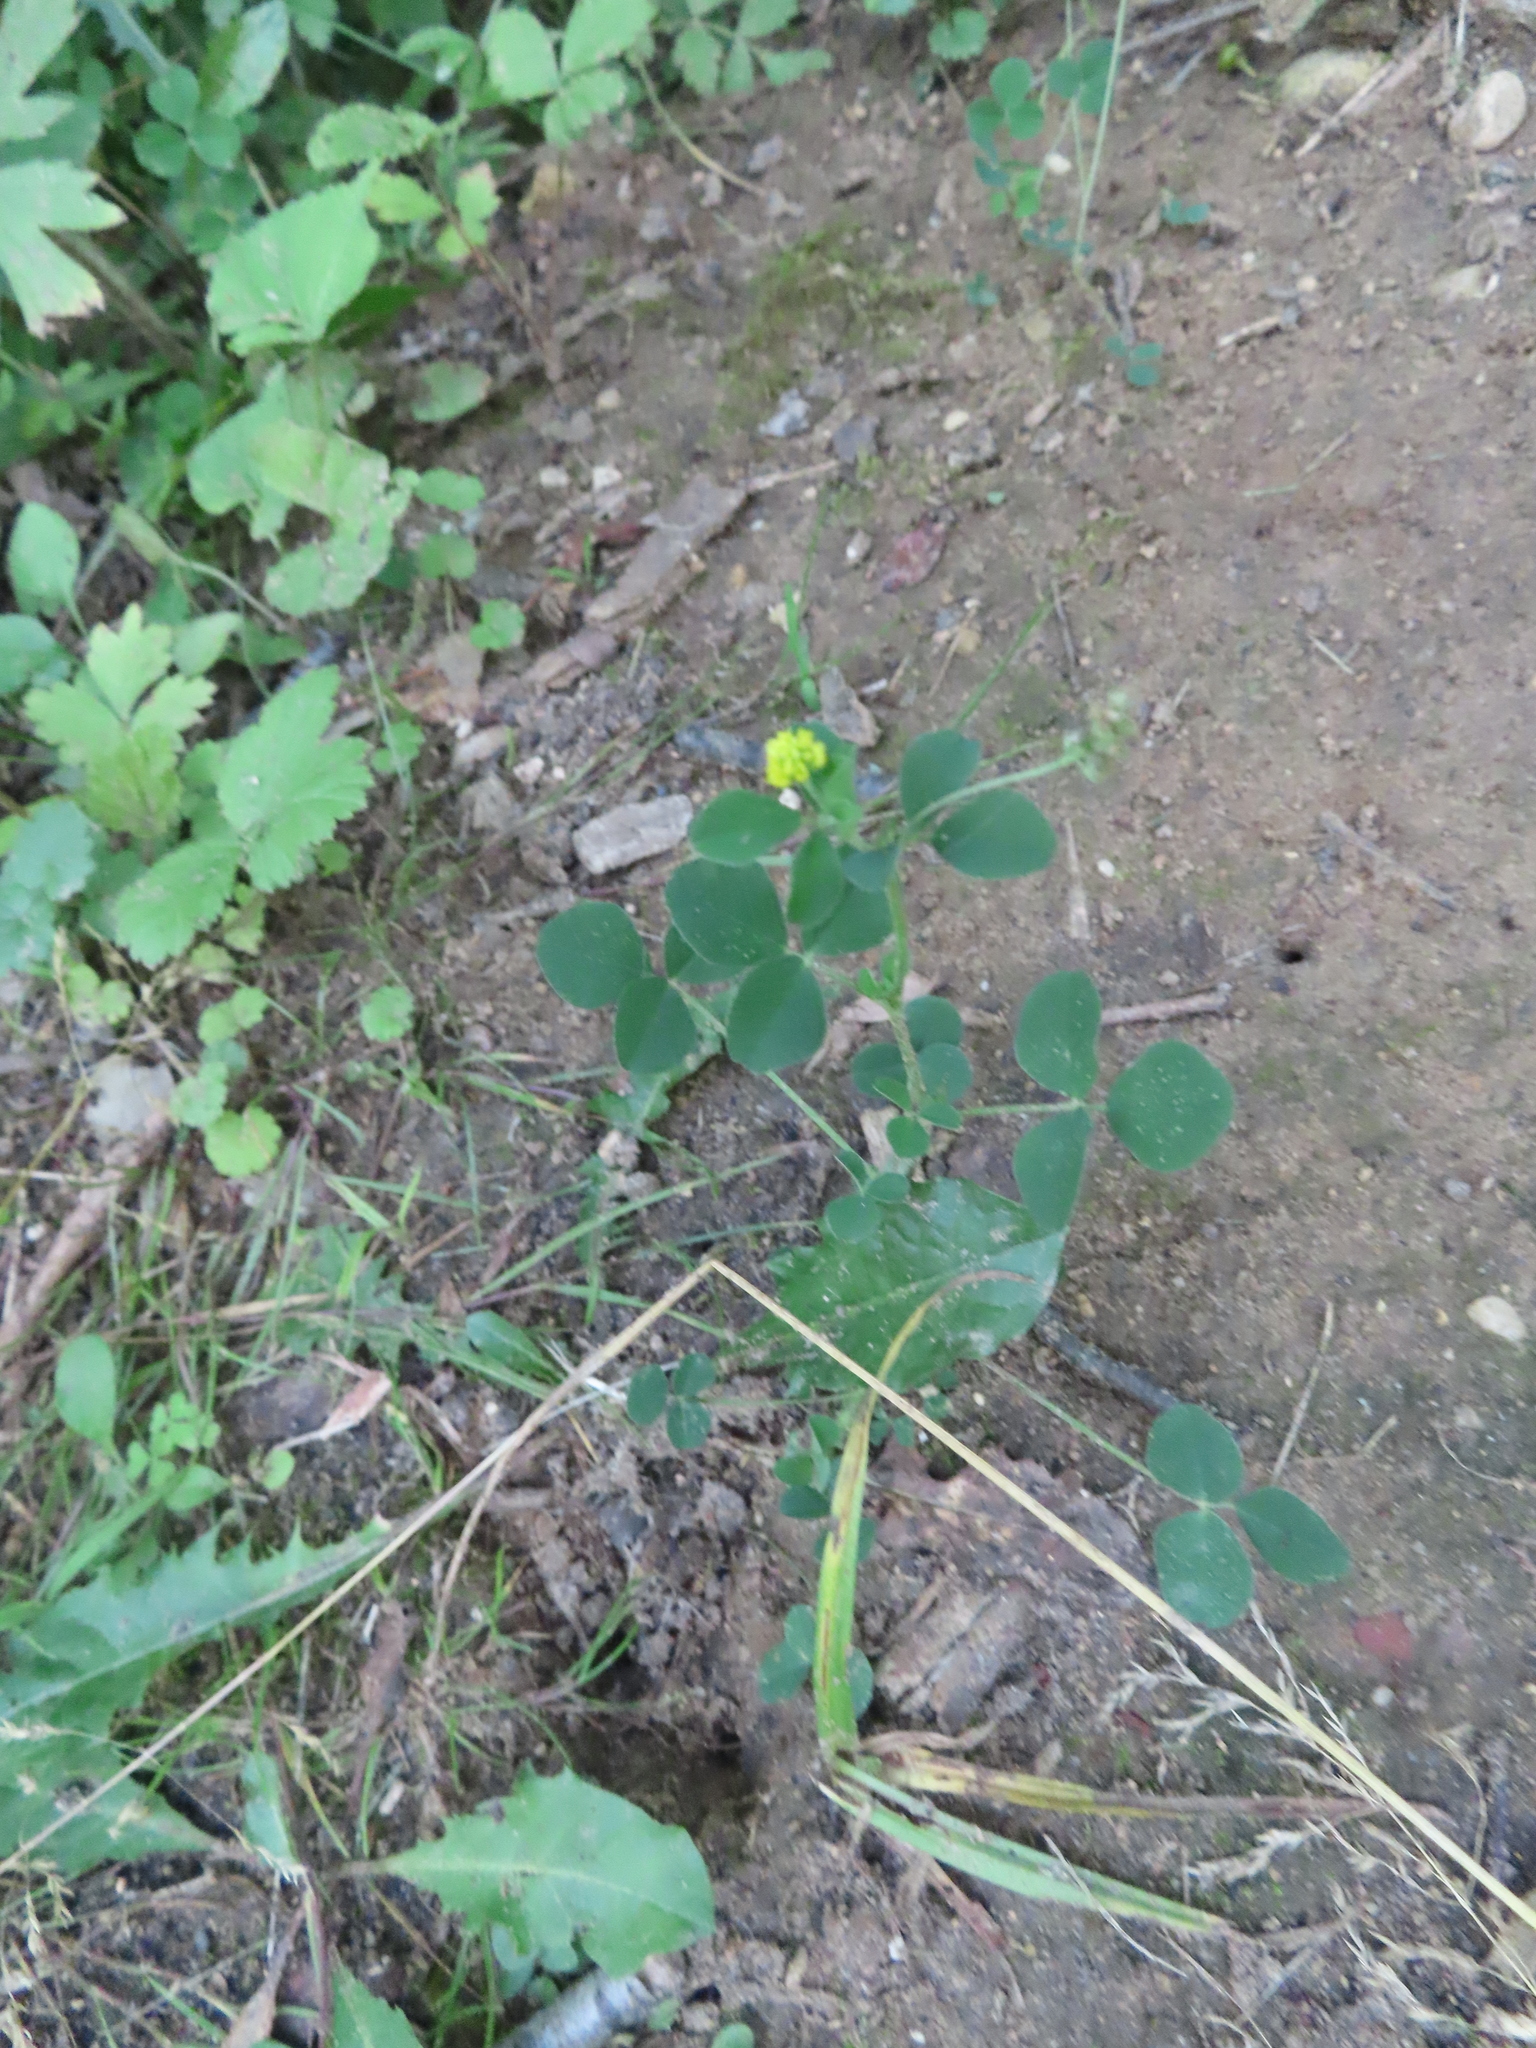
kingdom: Plantae
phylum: Tracheophyta
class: Magnoliopsida
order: Fabales
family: Fabaceae
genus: Medicago
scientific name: Medicago lupulina
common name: Black medick
